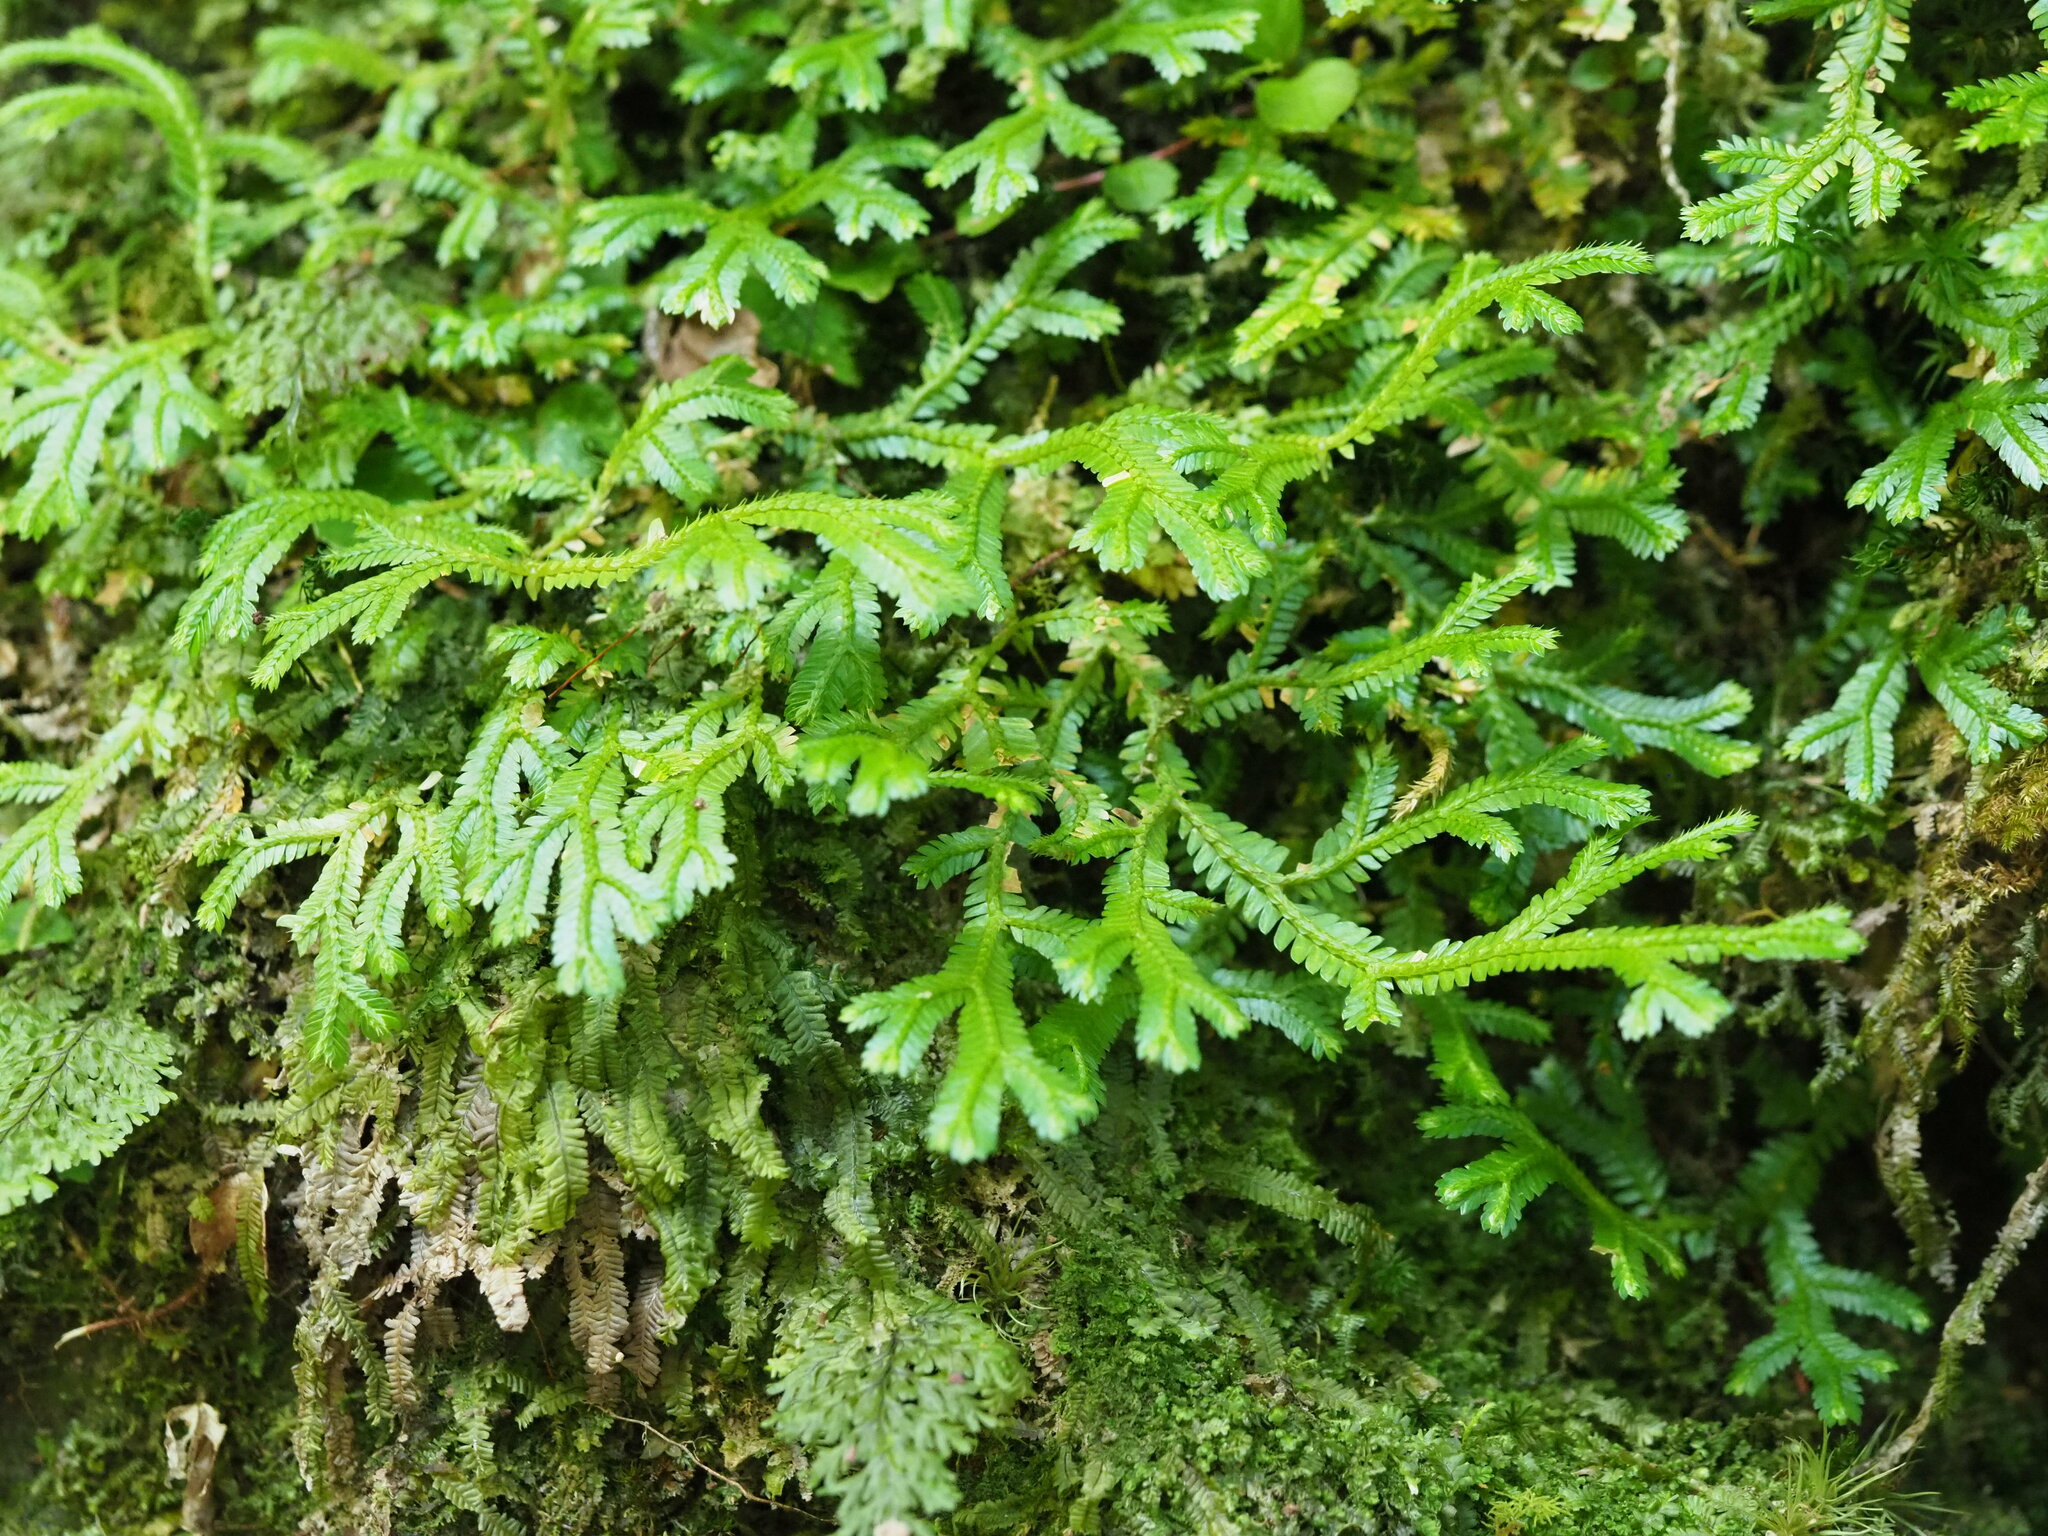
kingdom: Plantae
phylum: Tracheophyta
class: Lycopodiopsida
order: Selaginellales
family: Selaginellaceae
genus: Selaginella
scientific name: Selaginella doederleinii
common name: Greater selaginella
